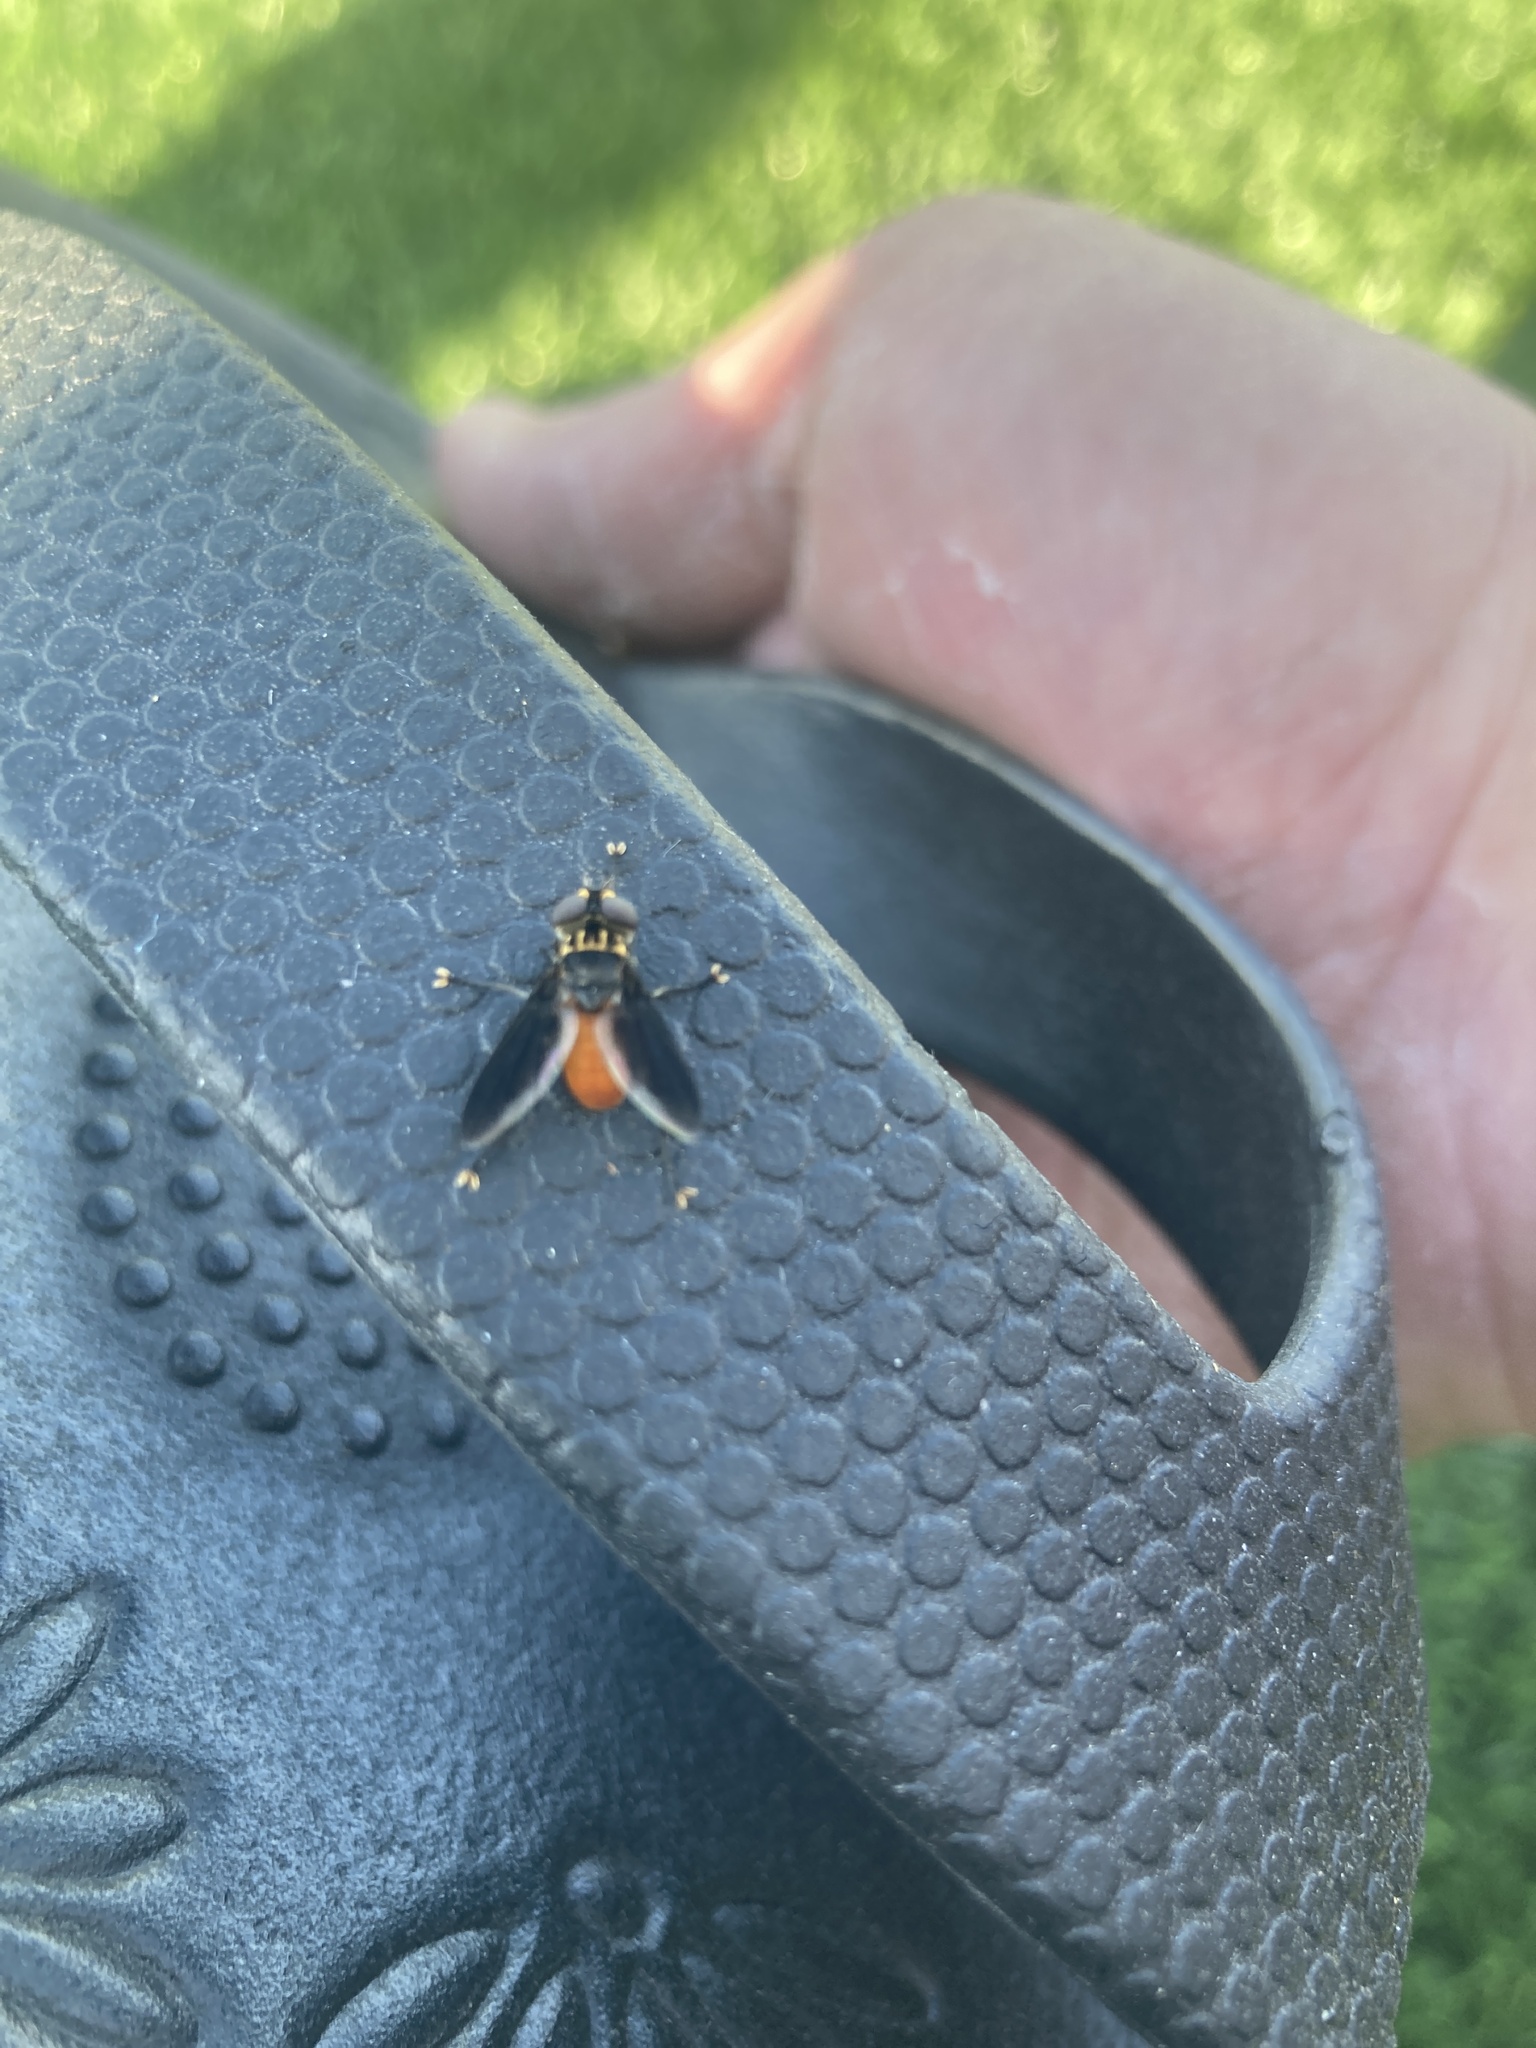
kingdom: Animalia
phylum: Arthropoda
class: Insecta
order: Diptera
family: Tachinidae
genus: Trichopoda
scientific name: Trichopoda pennipes
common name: Tachinid fly
